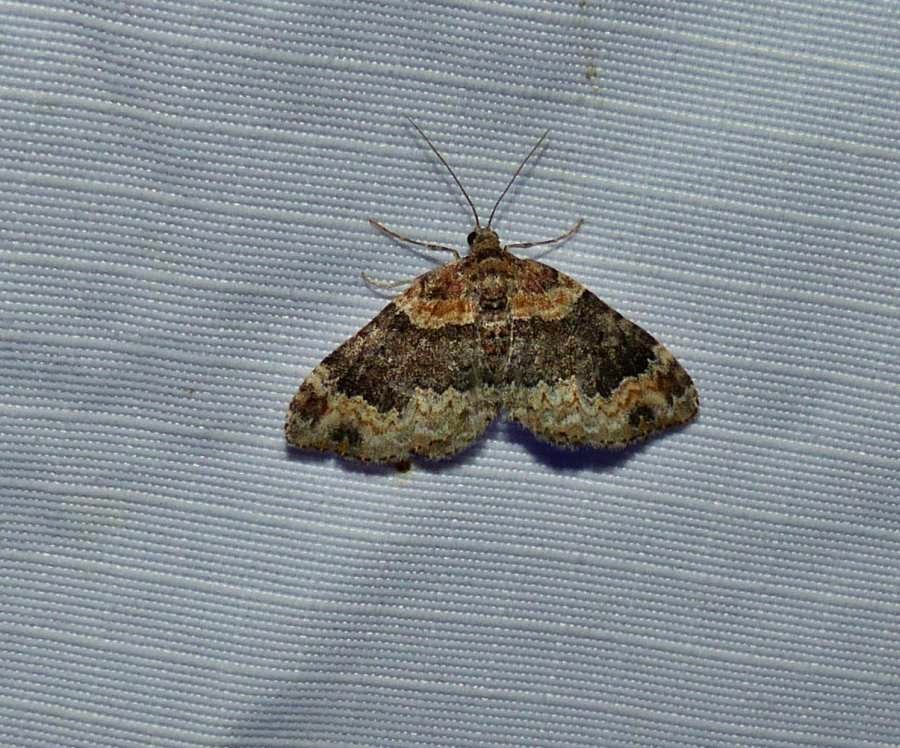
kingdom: Animalia
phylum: Arthropoda
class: Insecta
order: Lepidoptera
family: Geometridae
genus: Xanthorhoe
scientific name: Xanthorhoe ferrugata
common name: Dark-barred twin-spot carpet
